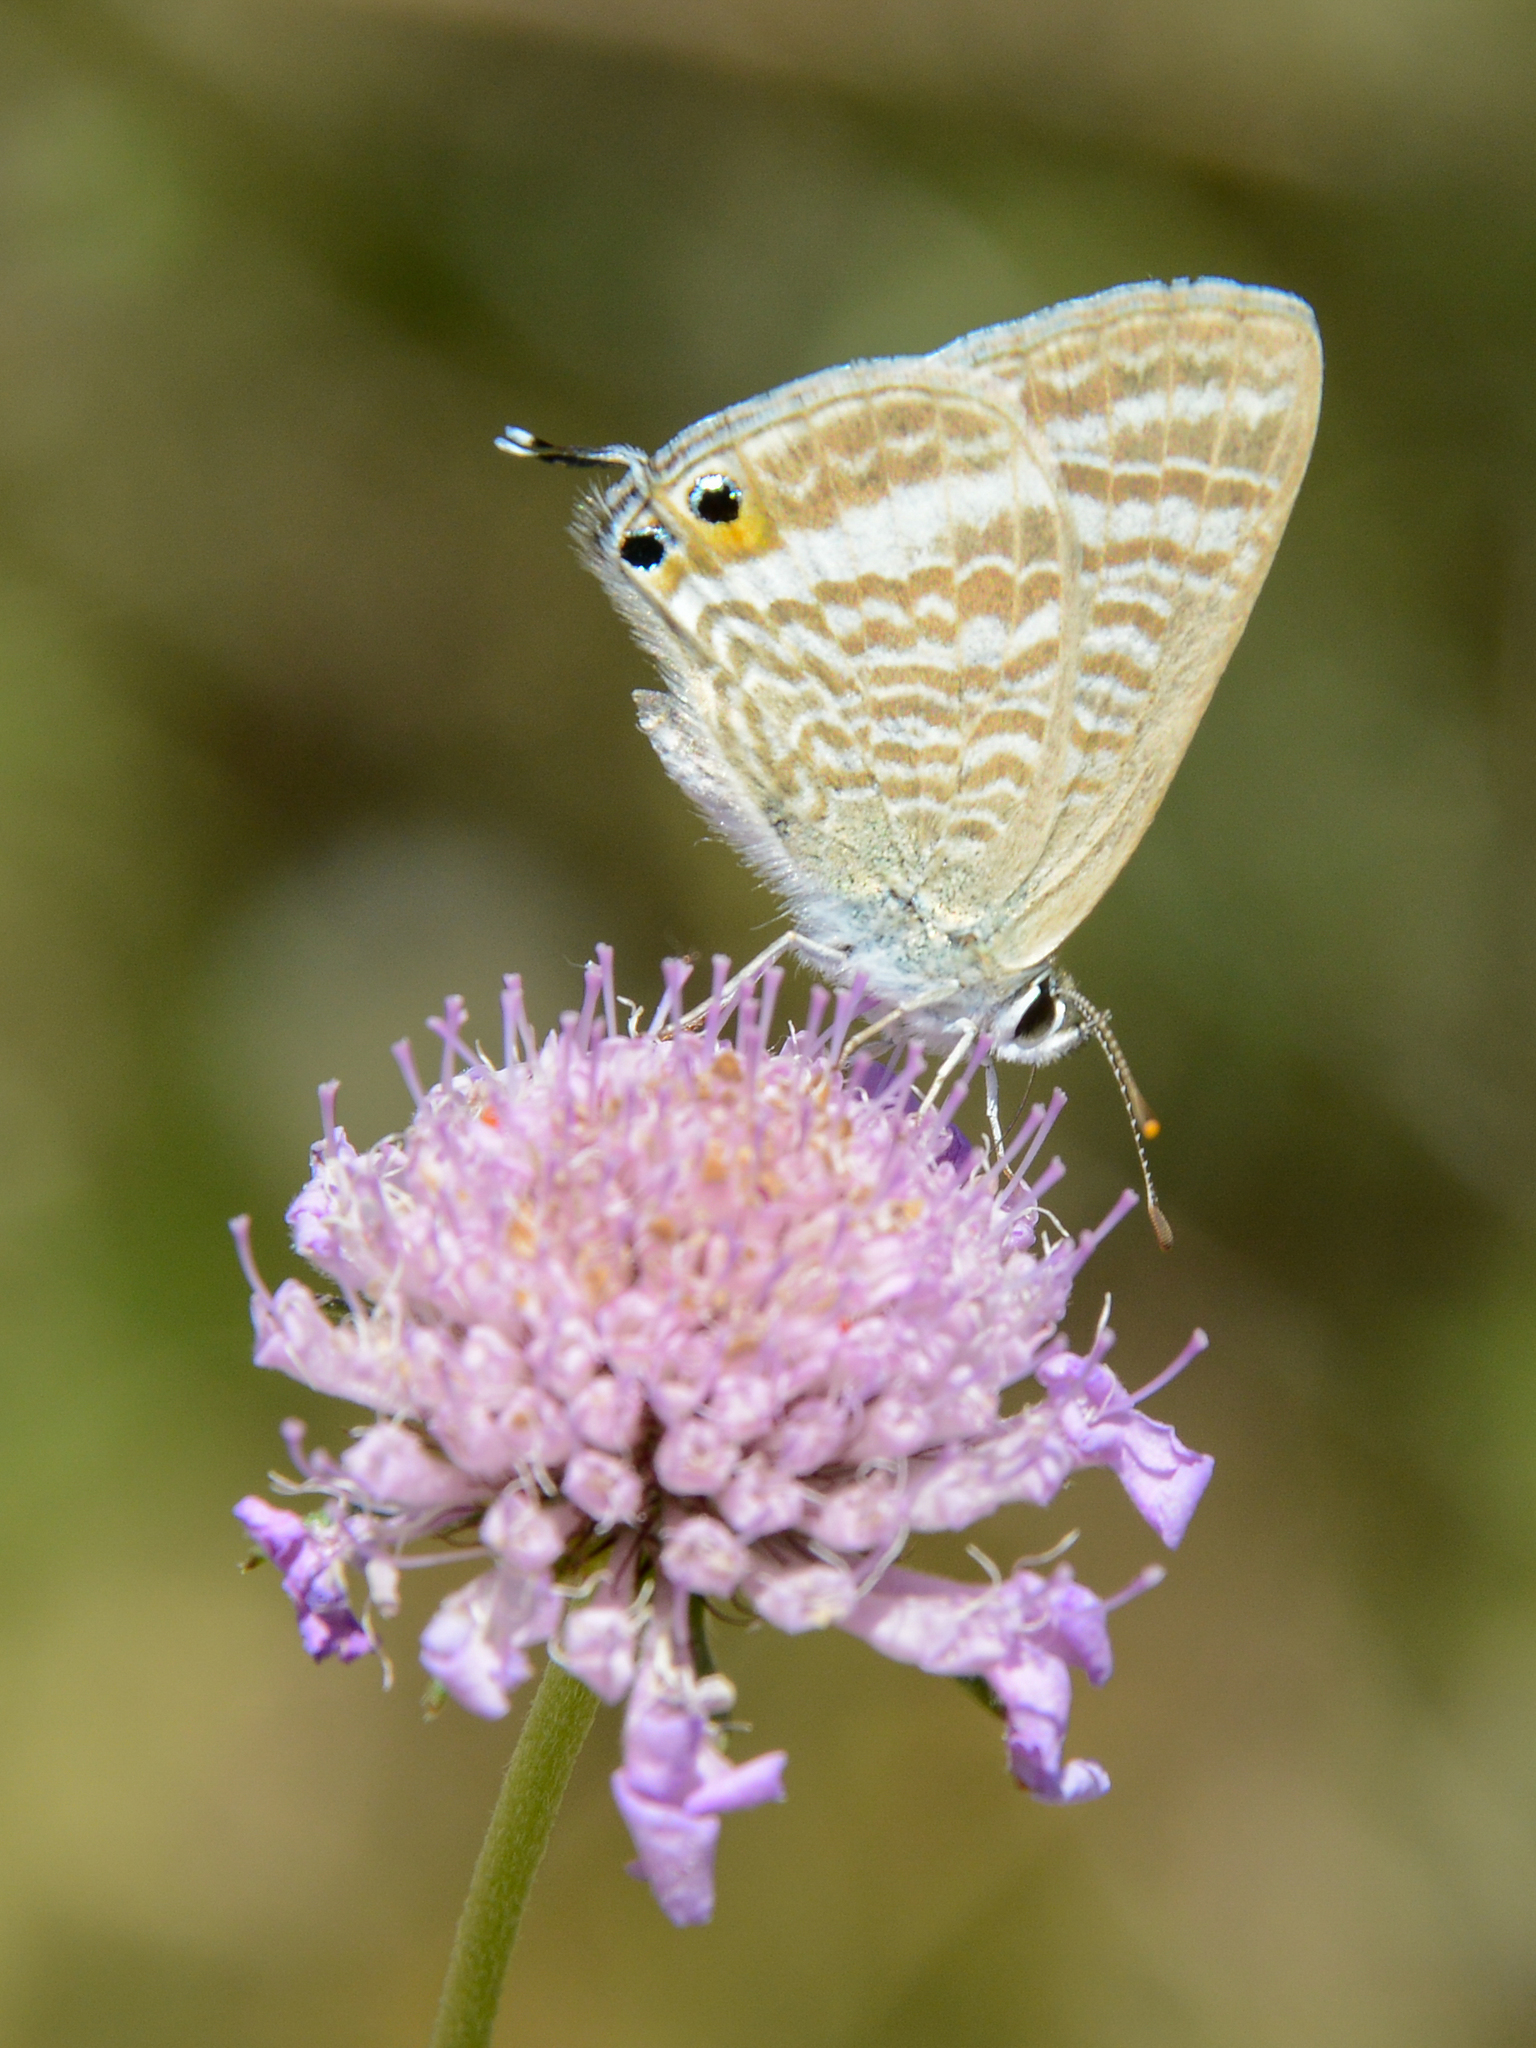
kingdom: Animalia
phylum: Arthropoda
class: Insecta
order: Lepidoptera
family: Lycaenidae
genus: Lampides
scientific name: Lampides boeticus
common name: Long-tailed blue
